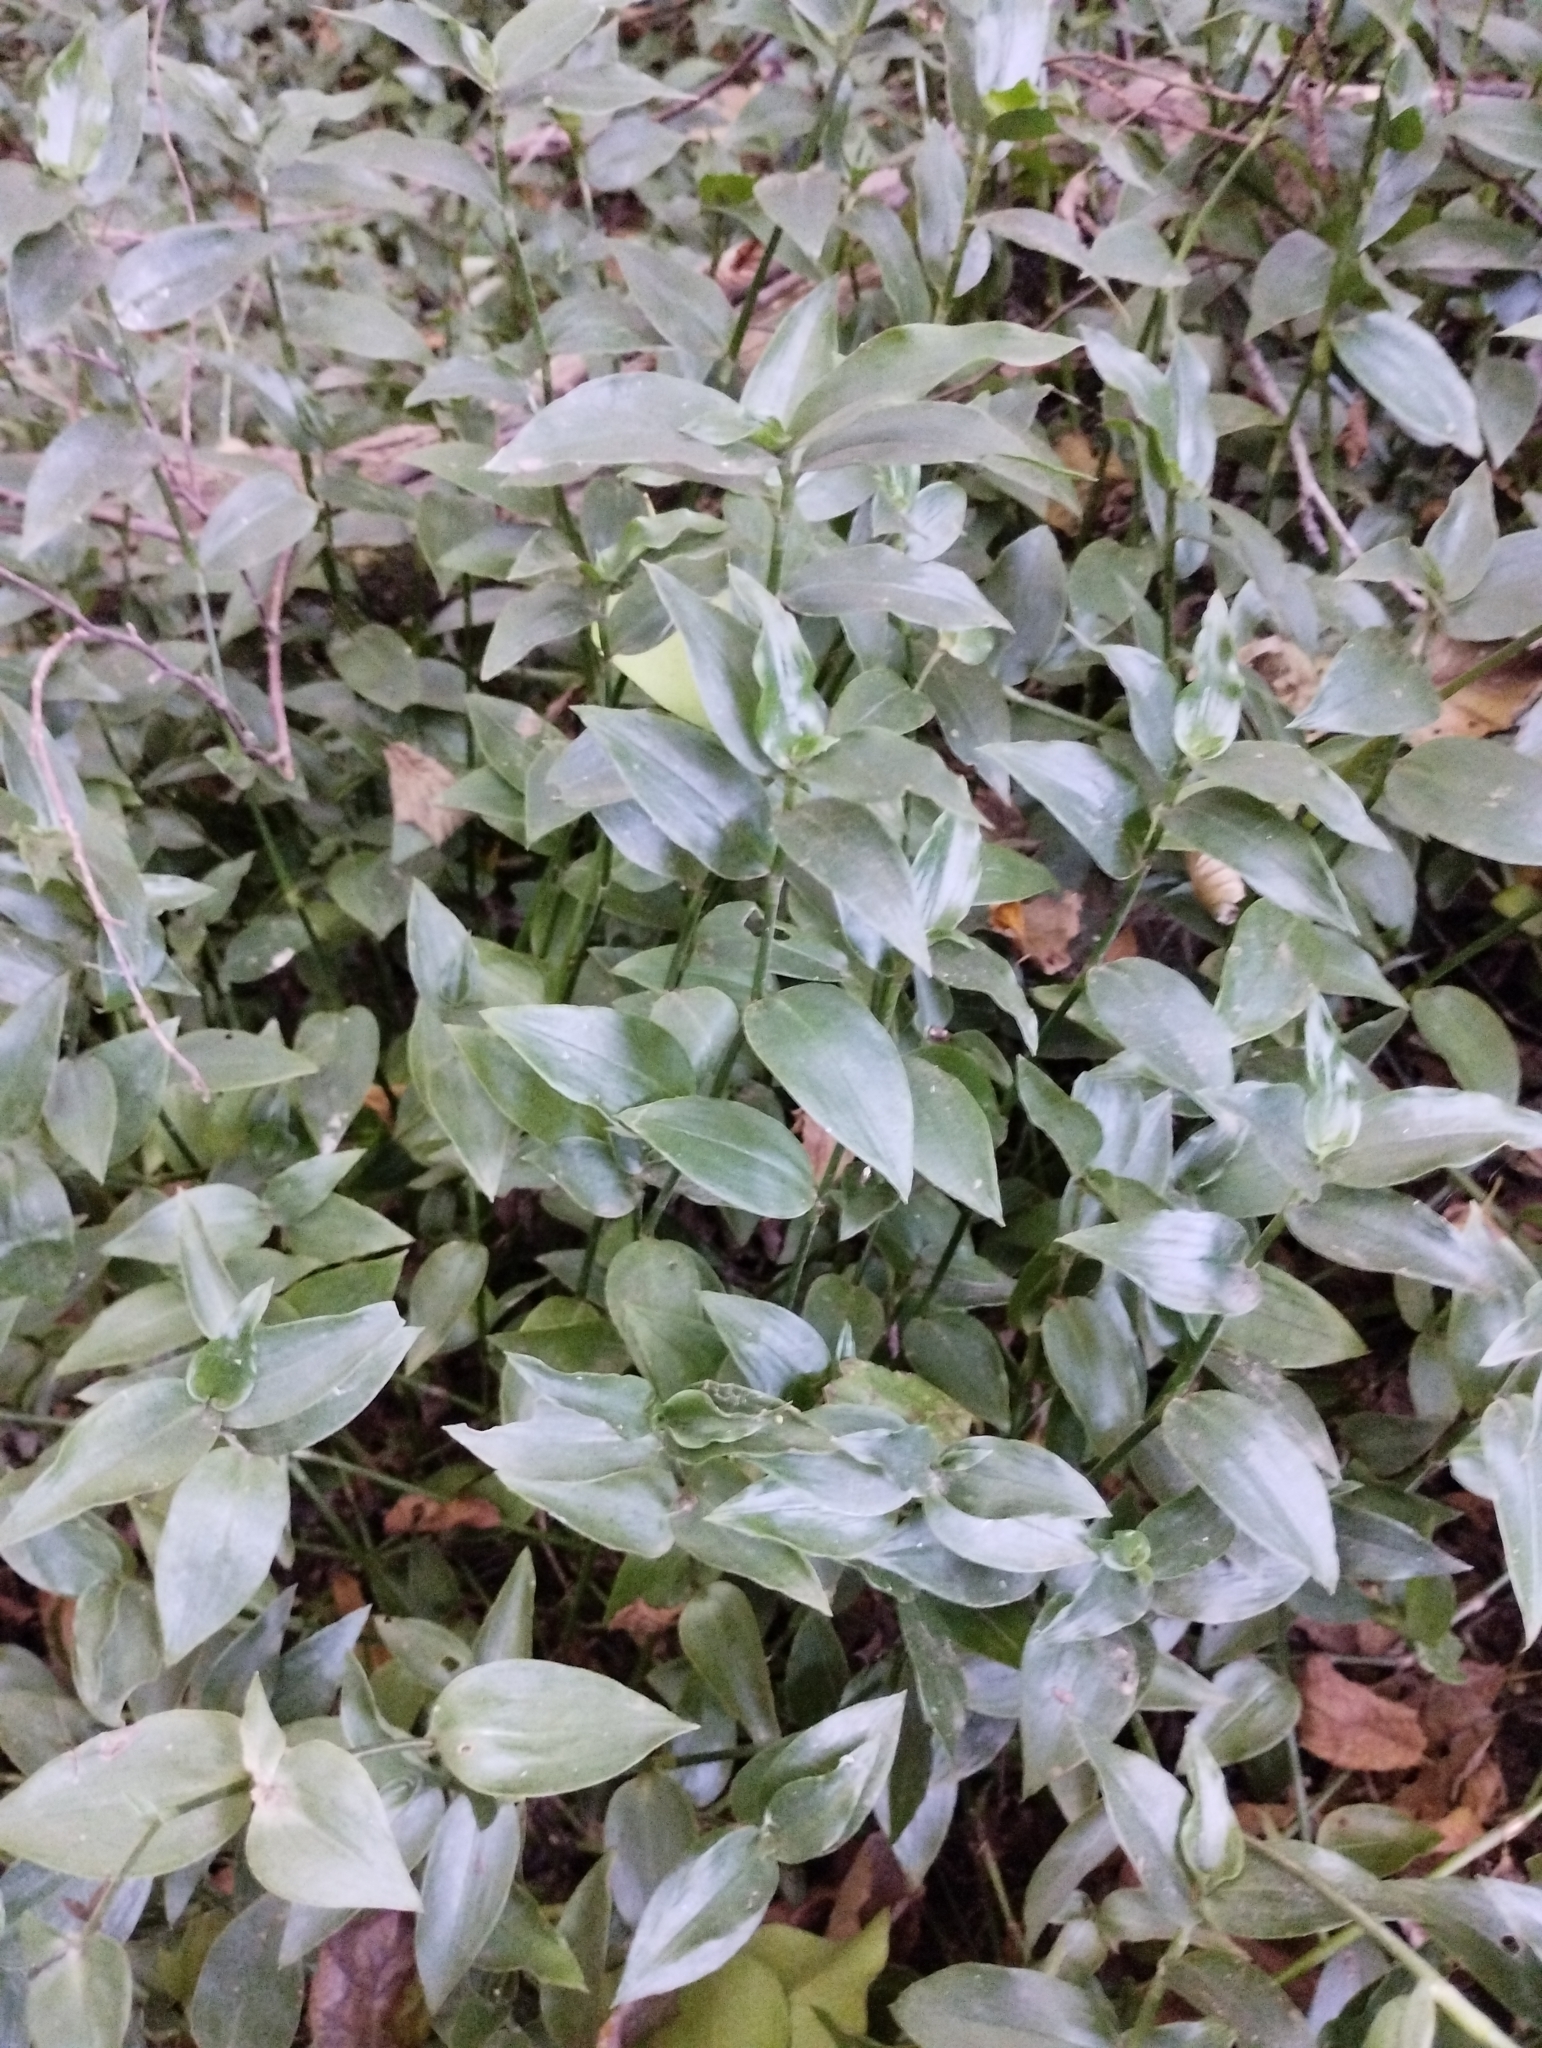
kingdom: Plantae
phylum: Tracheophyta
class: Liliopsida
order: Commelinales
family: Commelinaceae
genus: Tradescantia
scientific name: Tradescantia fluminensis
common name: Wandering-jew
